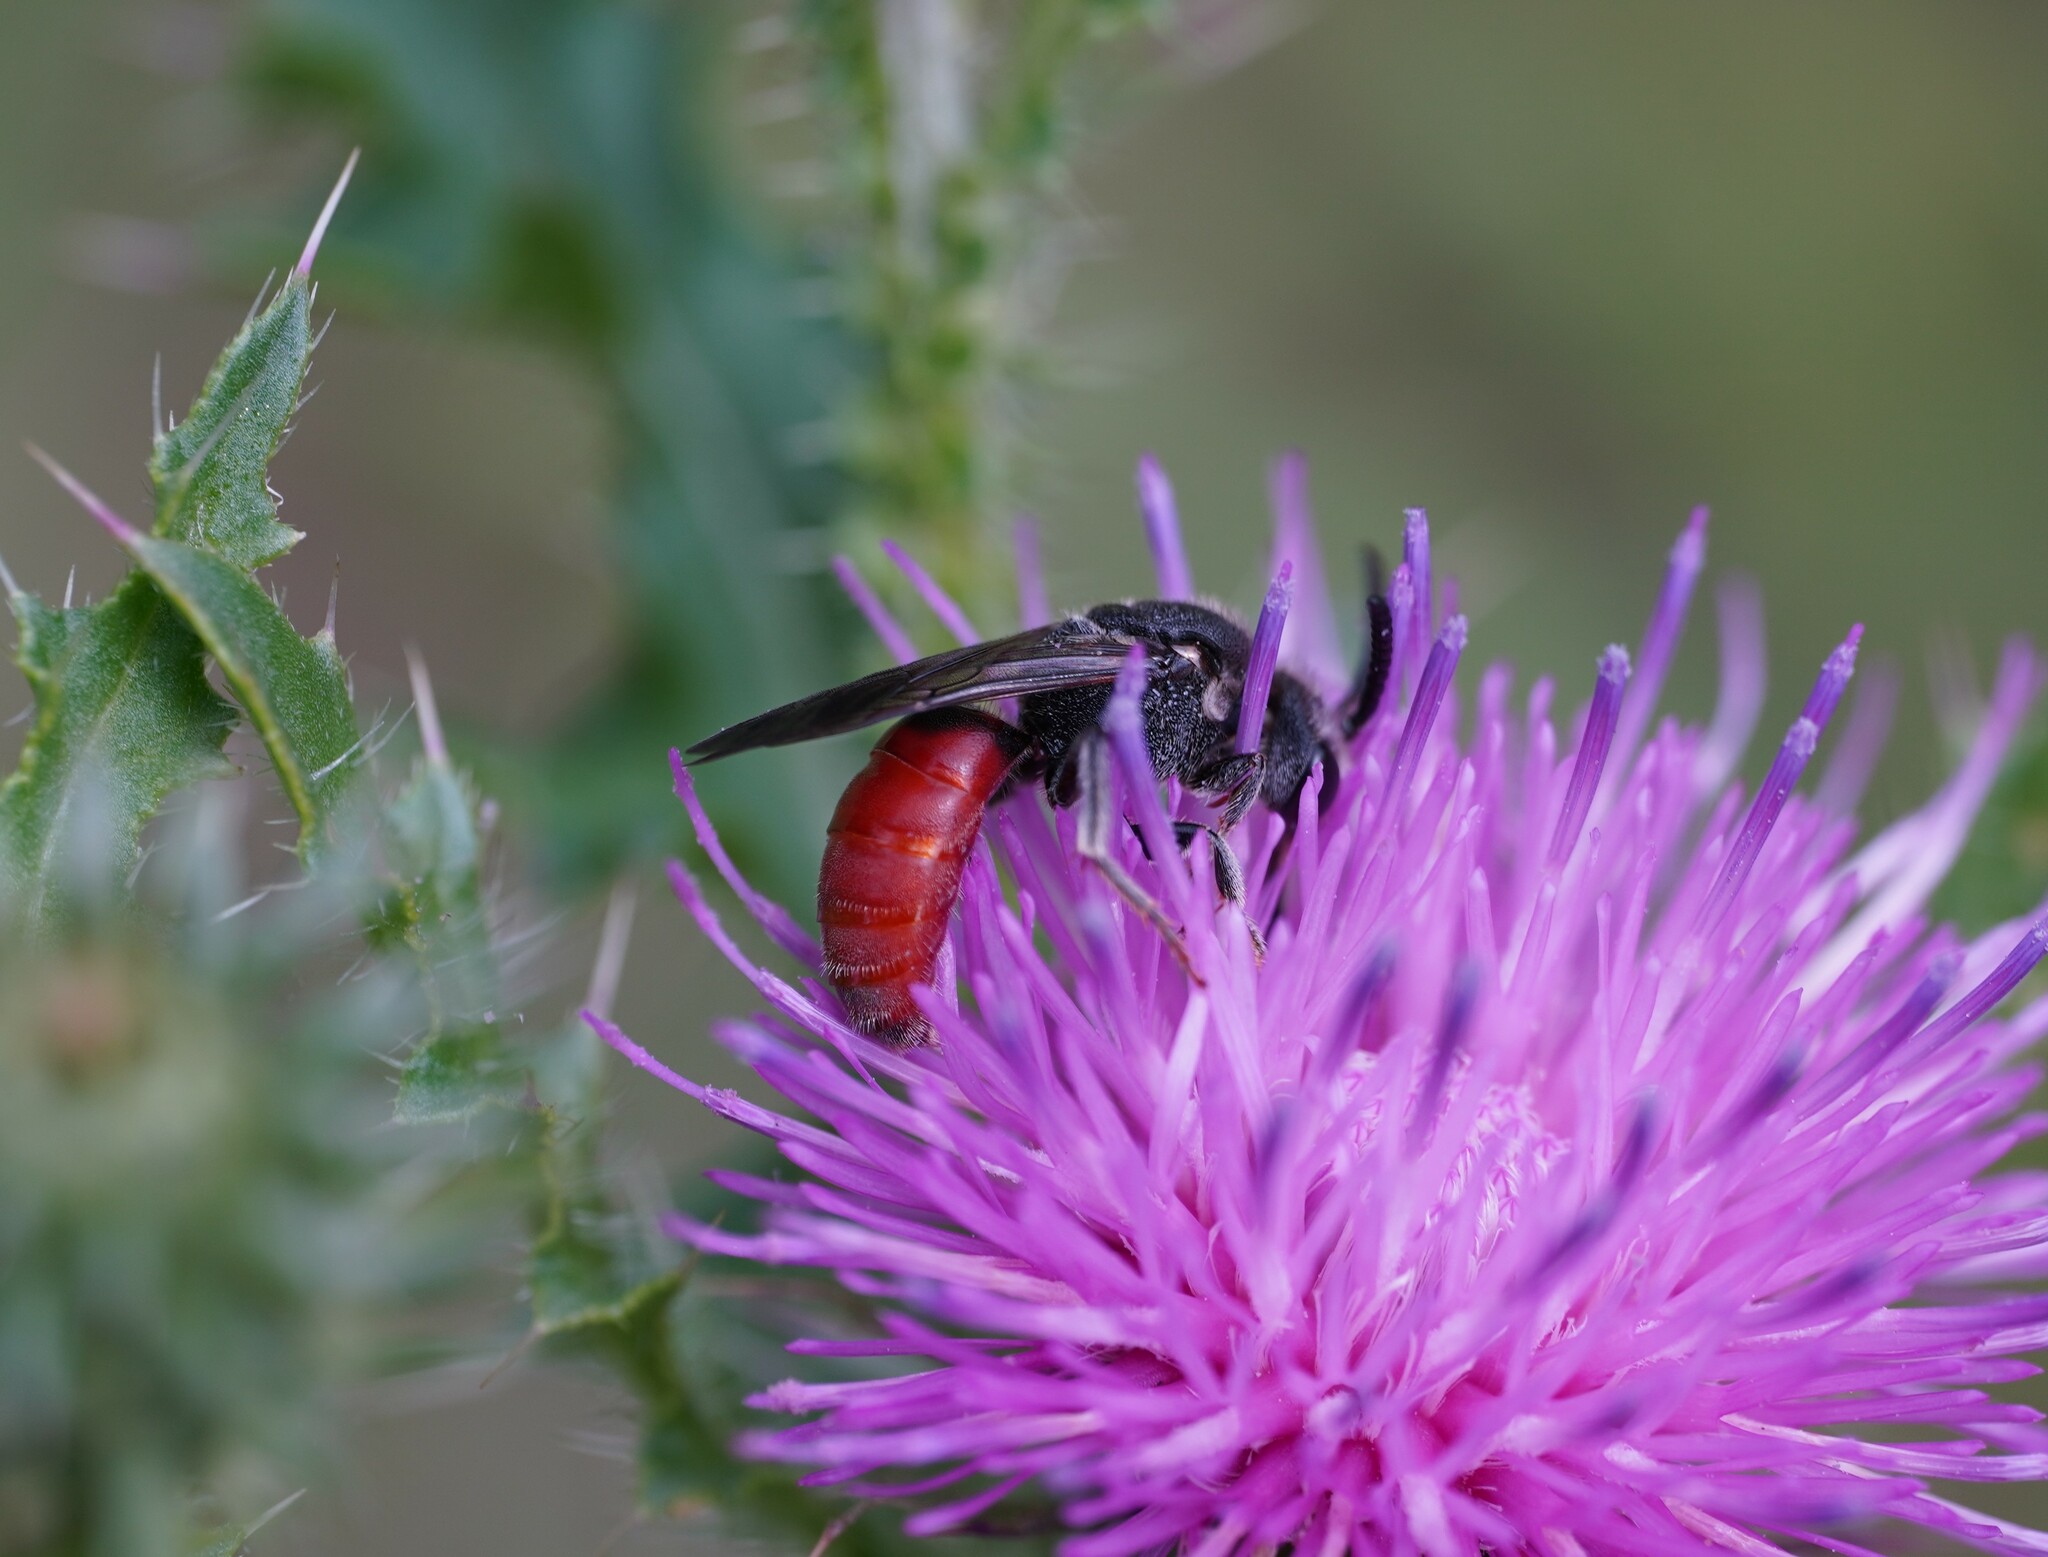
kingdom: Animalia
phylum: Arthropoda
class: Insecta
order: Hymenoptera
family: Halictidae
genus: Sphecodes
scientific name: Sphecodes albilabris
